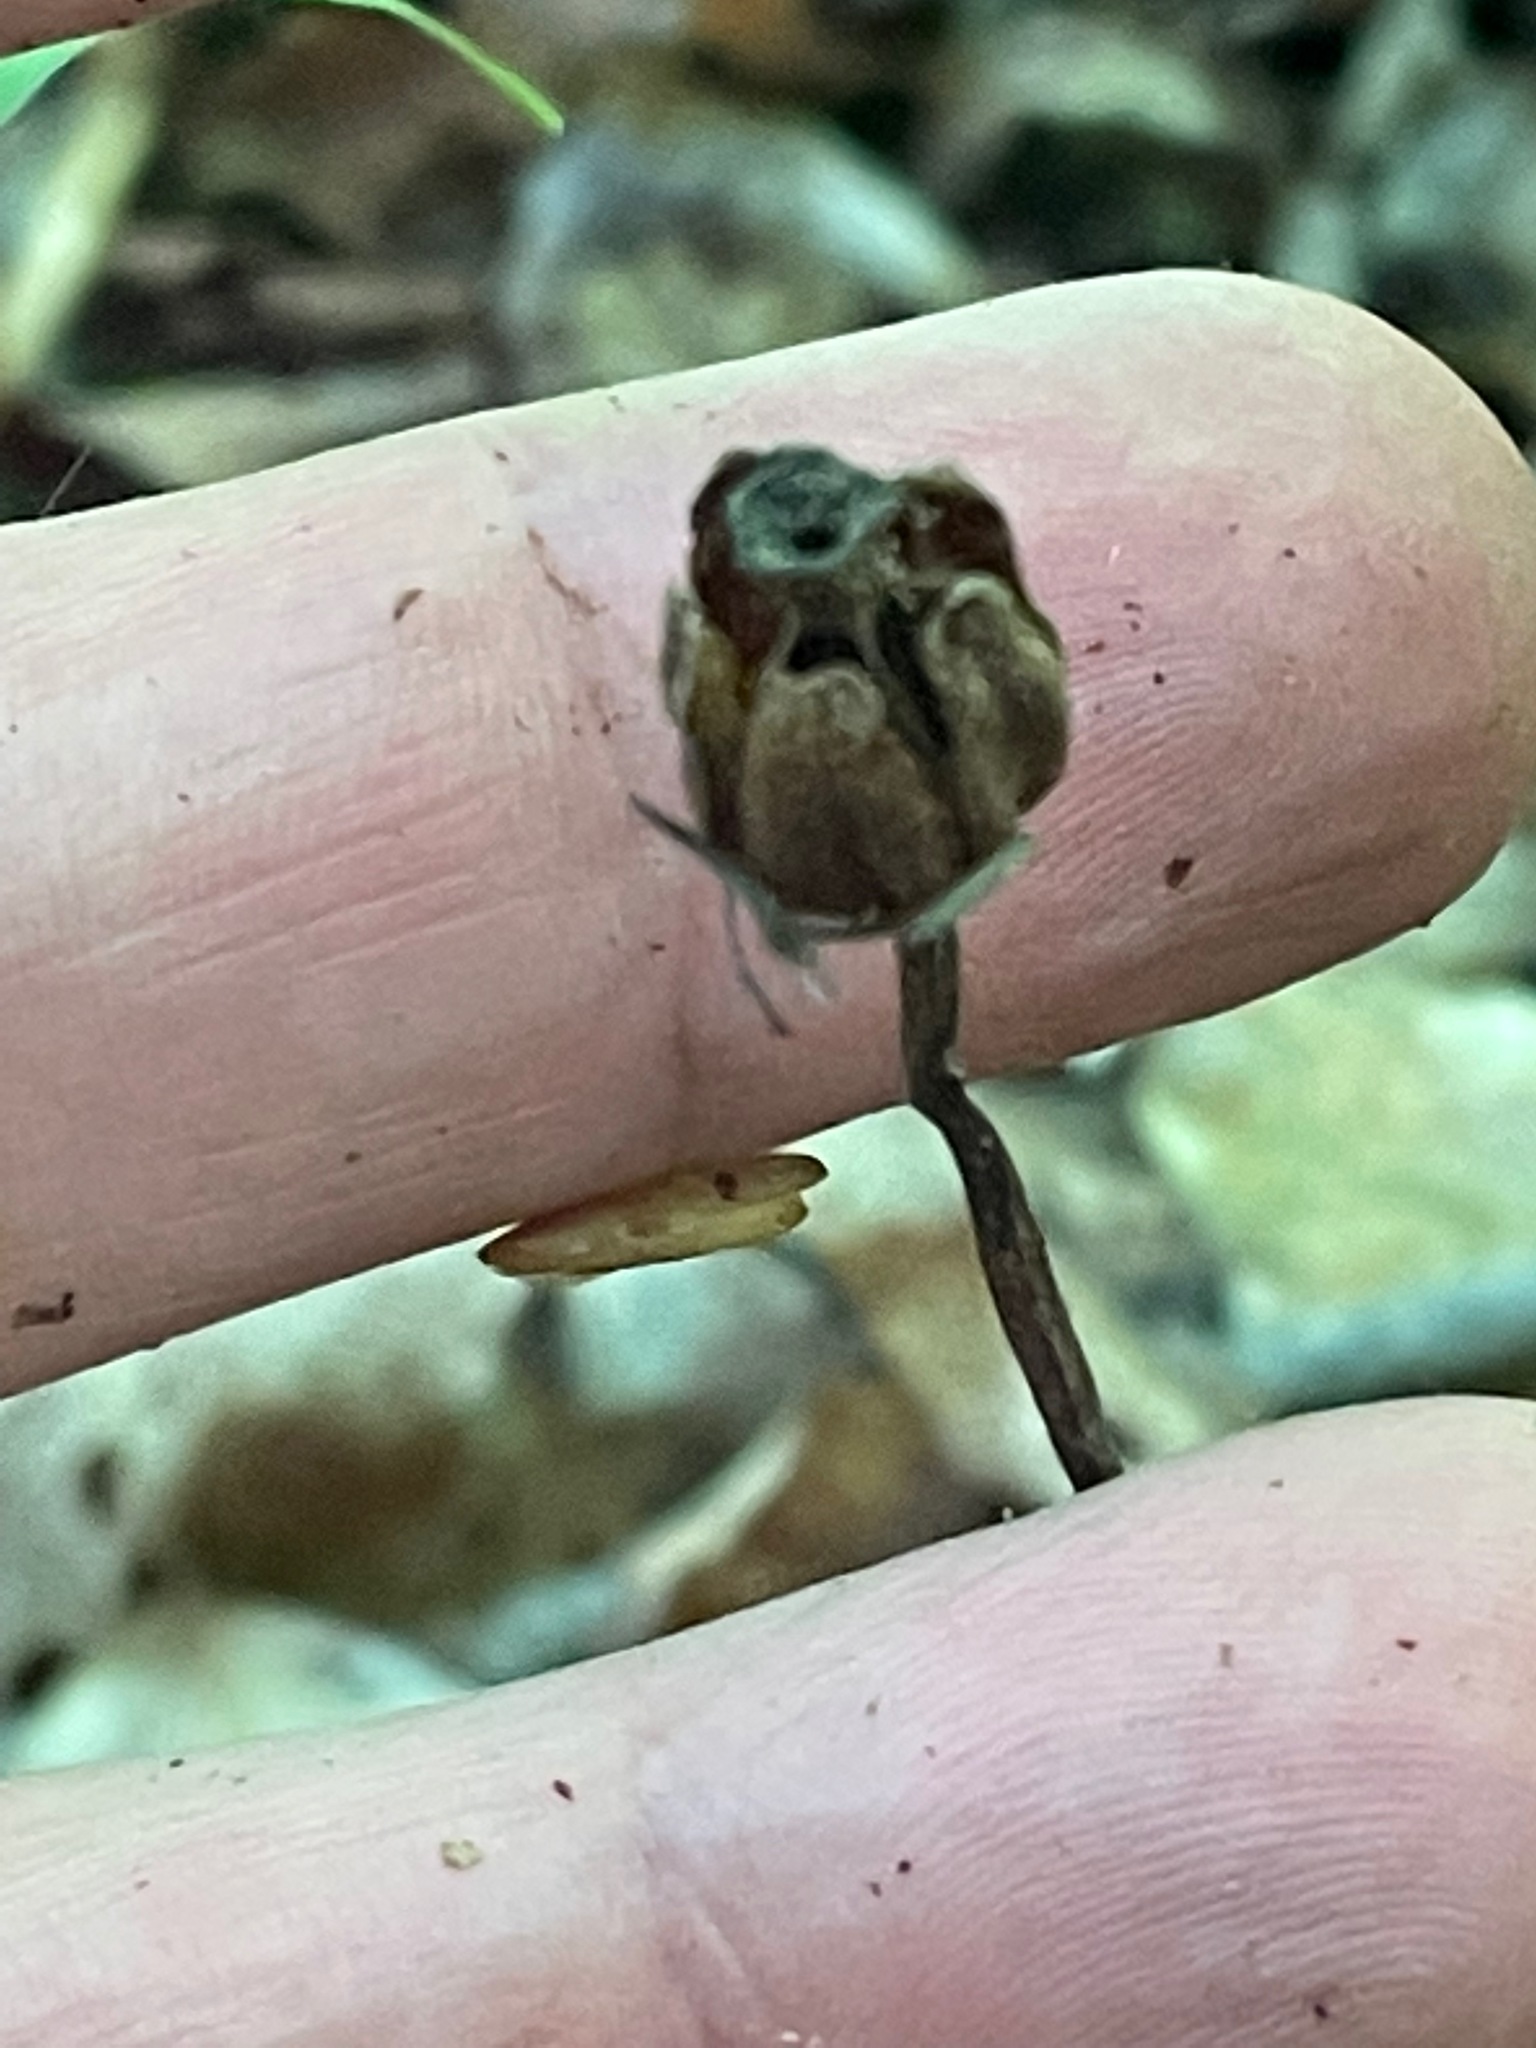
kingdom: Plantae
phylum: Tracheophyta
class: Magnoliopsida
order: Ericales
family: Ericaceae
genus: Monotropa
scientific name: Monotropa uniflora
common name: Convulsion root
